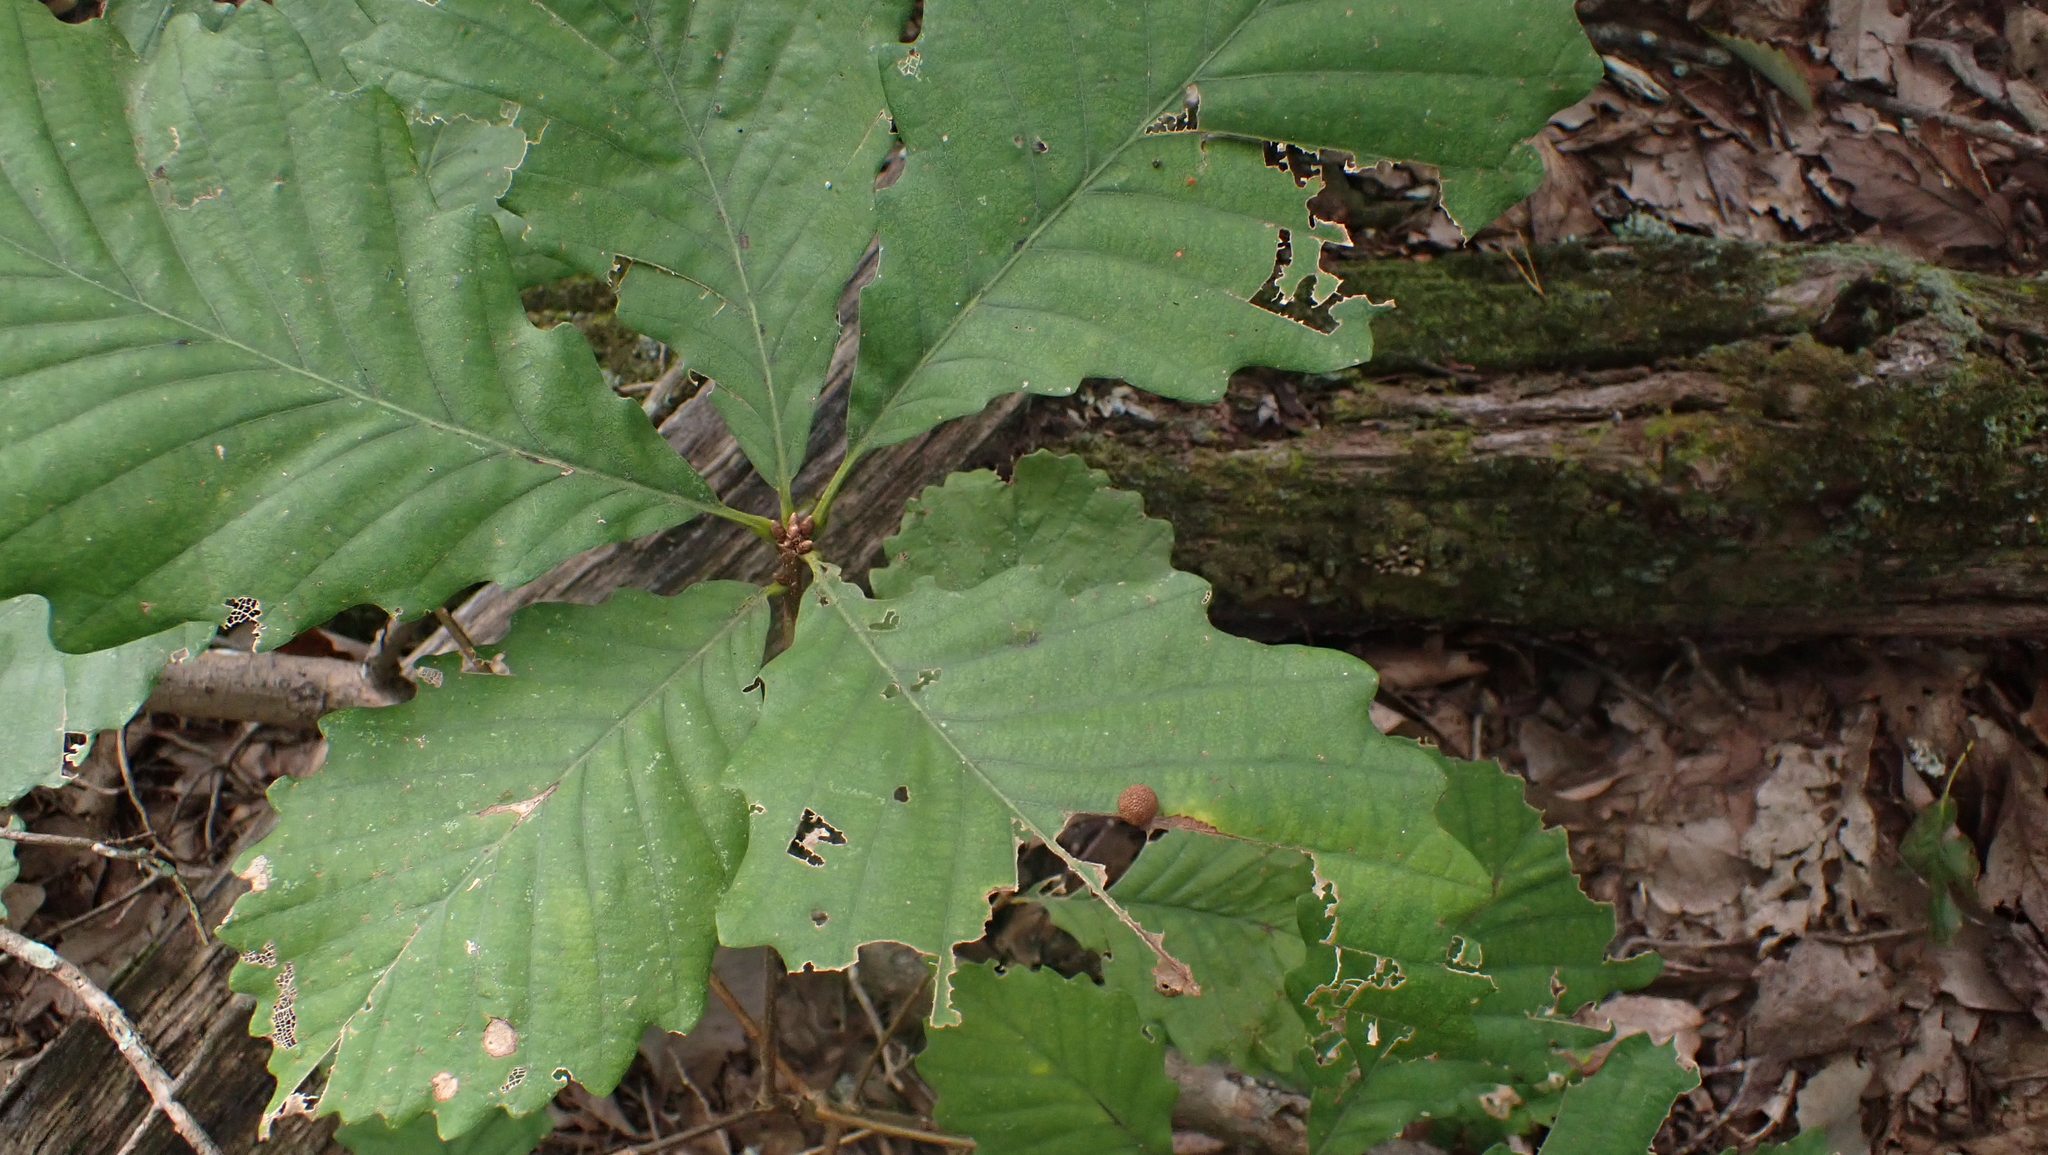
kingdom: Animalia
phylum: Arthropoda
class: Insecta
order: Hymenoptera
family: Cynipidae
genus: Acraspis
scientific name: Acraspis quercushirta
